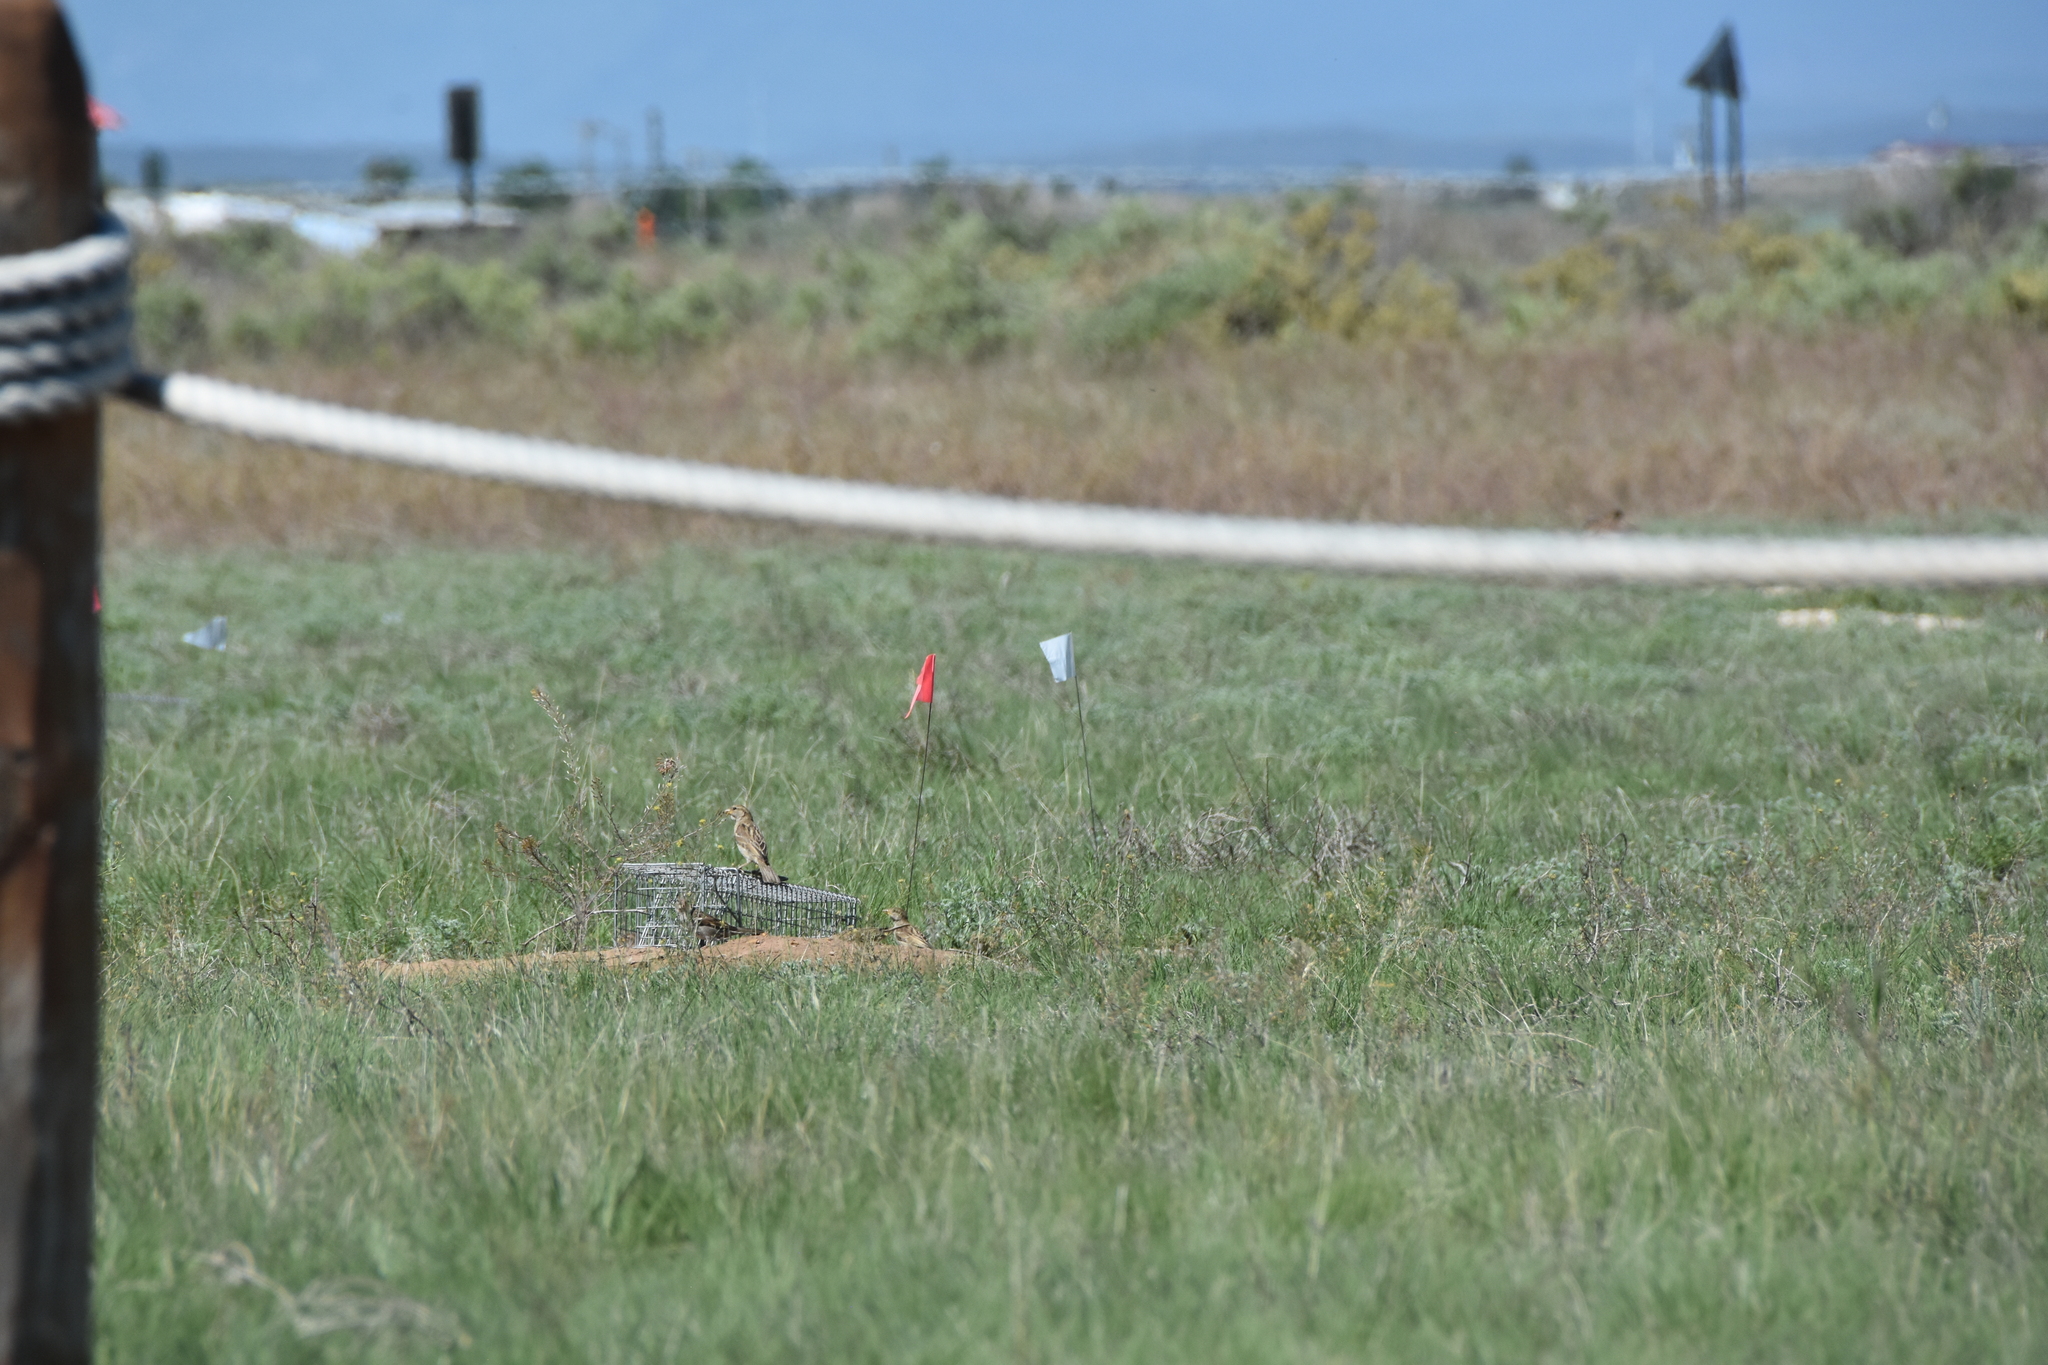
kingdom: Animalia
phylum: Chordata
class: Aves
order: Passeriformes
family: Passeridae
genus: Passer
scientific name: Passer domesticus
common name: House sparrow
